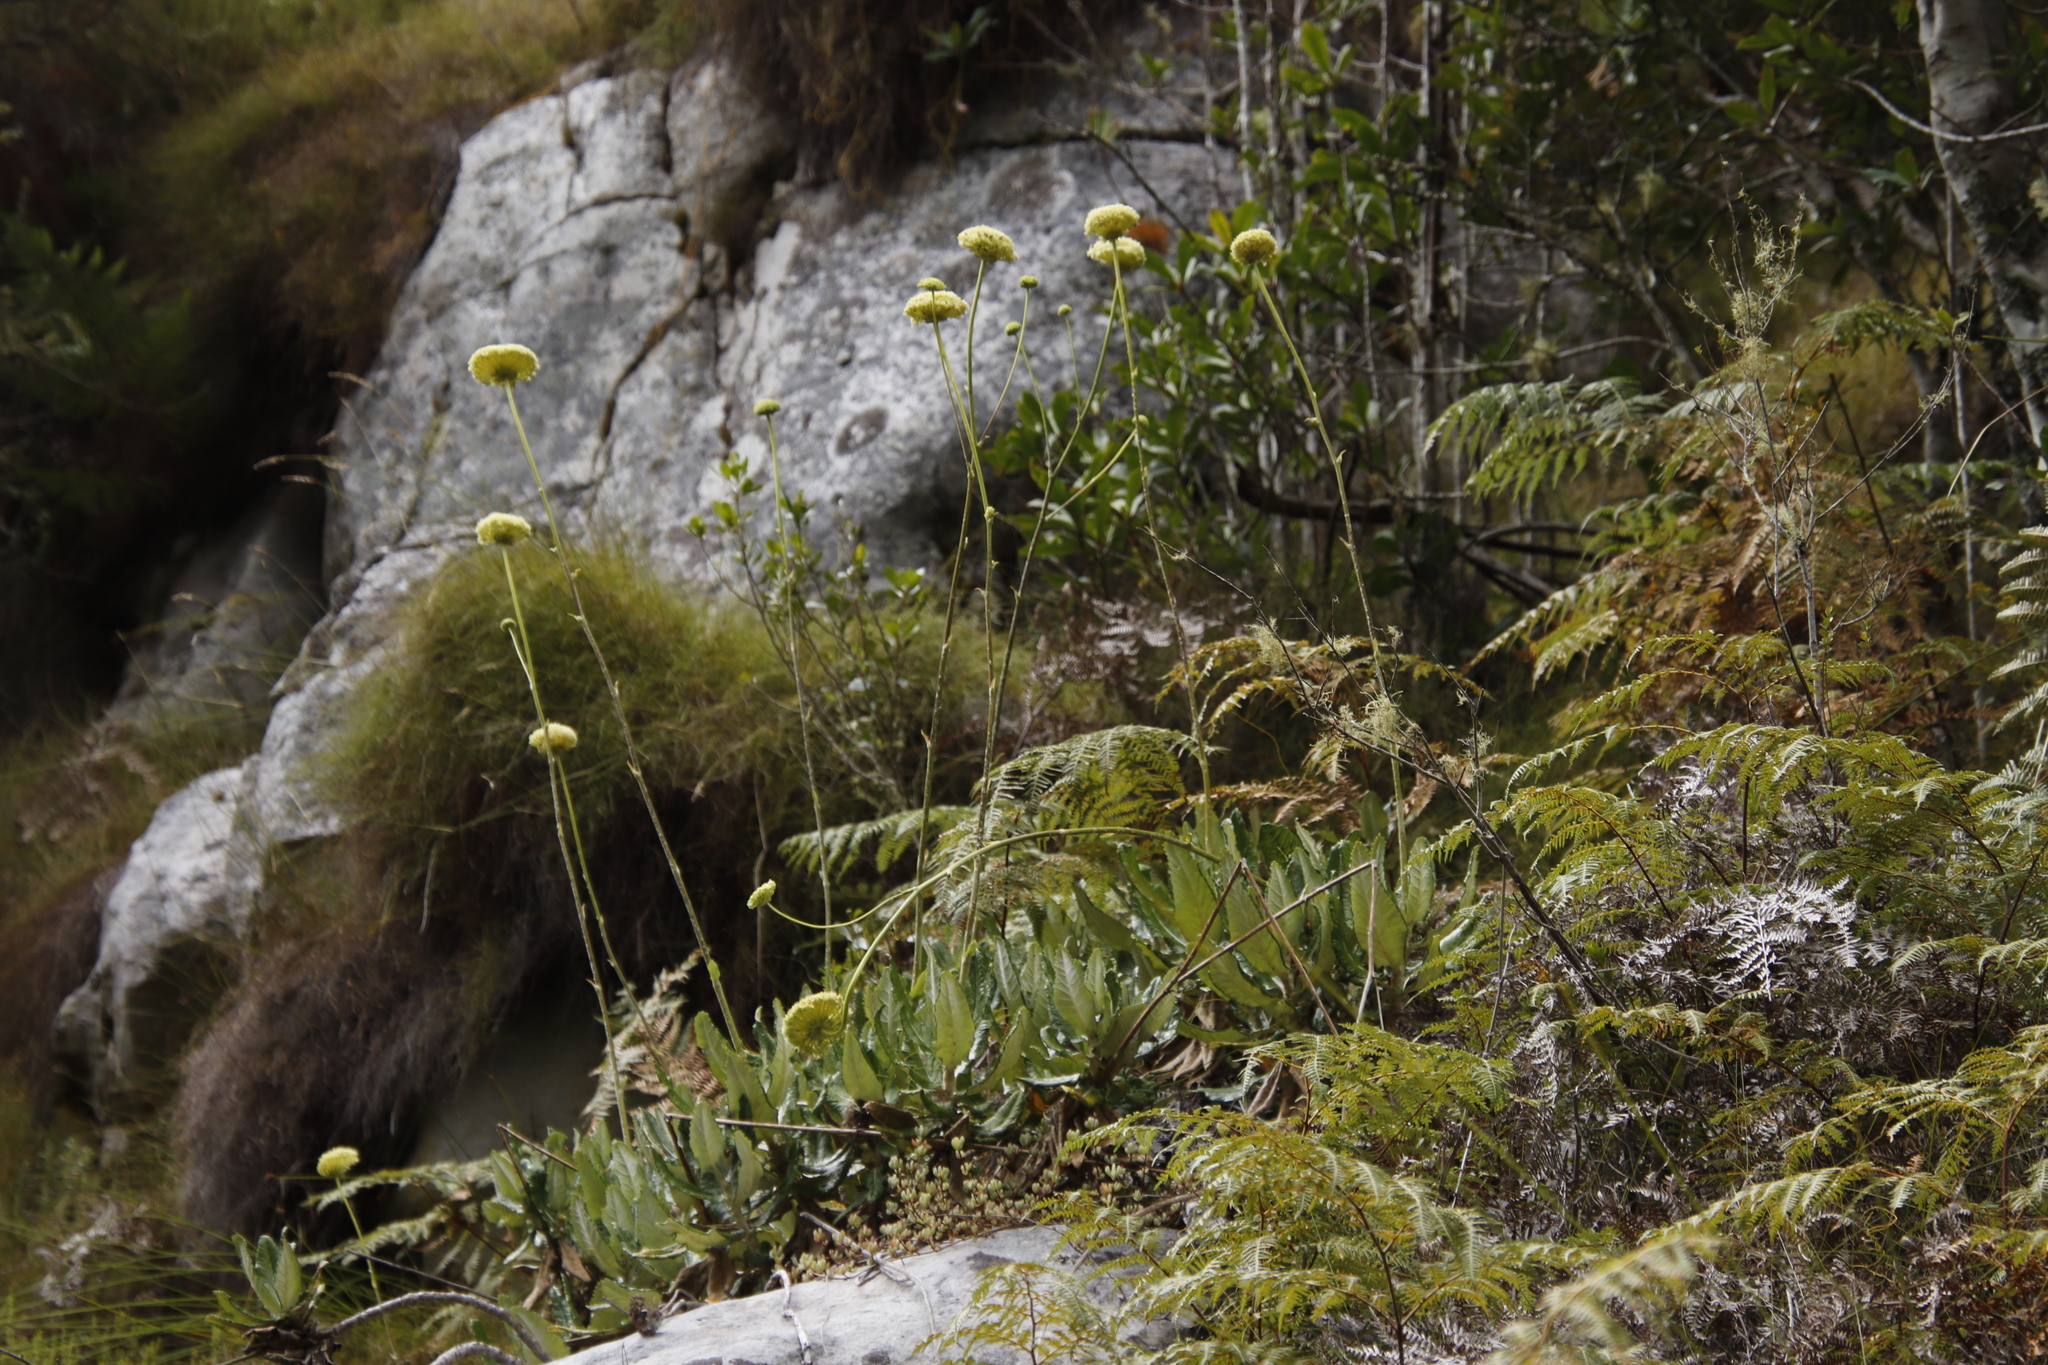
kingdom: Plantae
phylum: Tracheophyta
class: Magnoliopsida
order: Apiales
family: Apiaceae
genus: Hermas
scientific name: Hermas villosa
